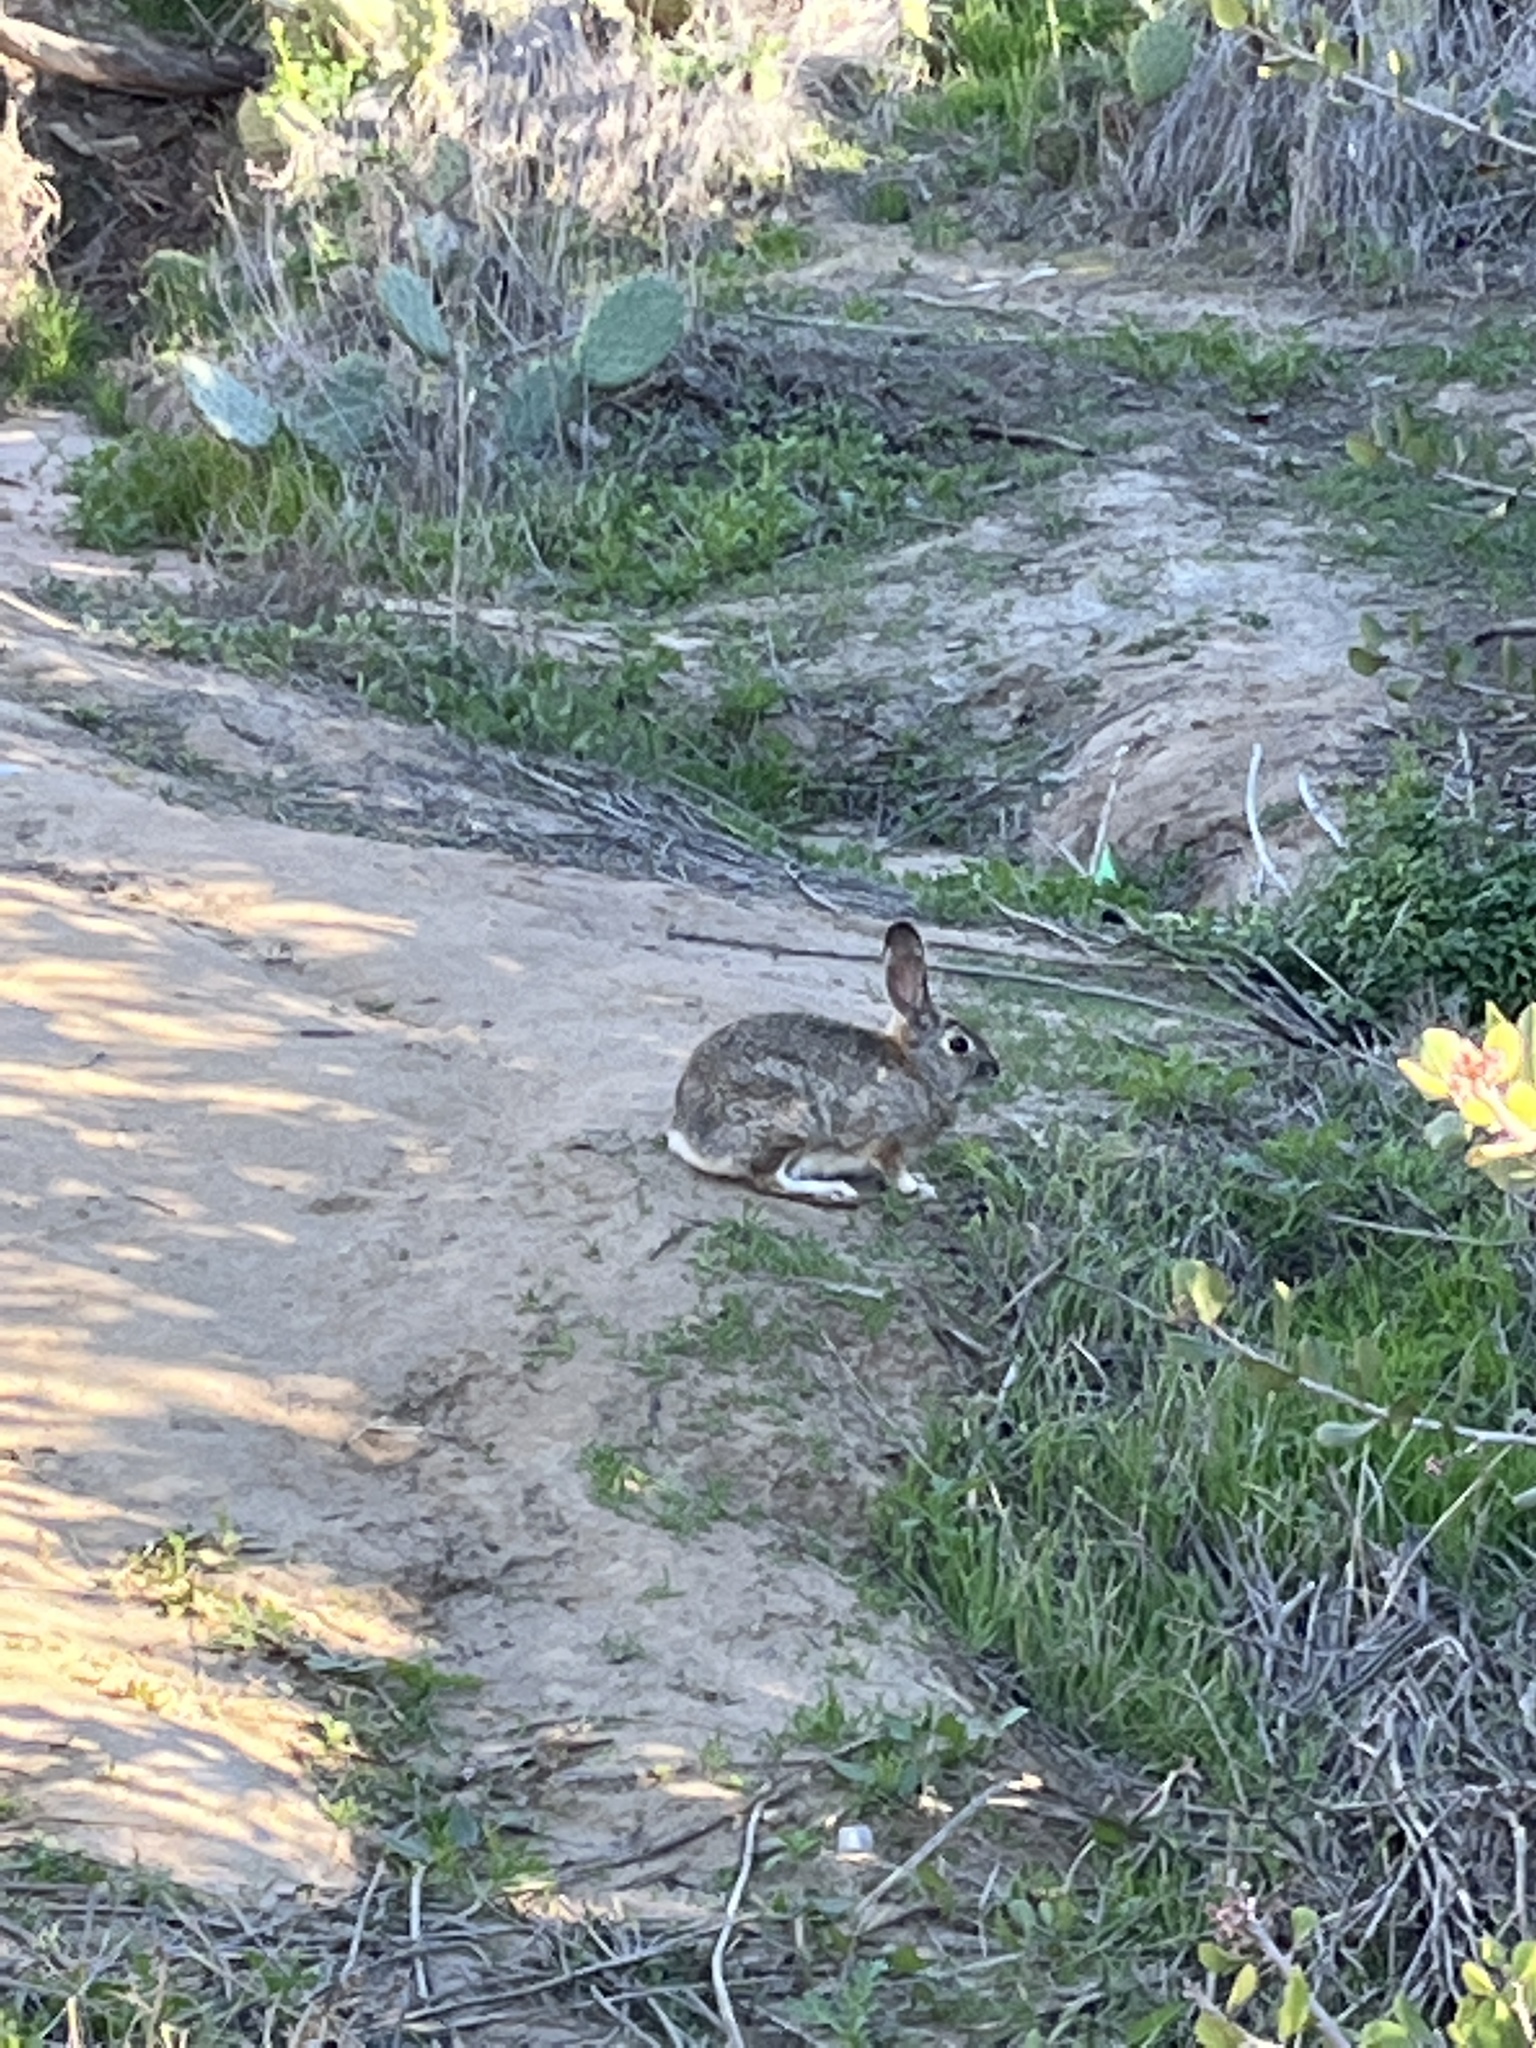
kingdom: Animalia
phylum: Chordata
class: Mammalia
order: Lagomorpha
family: Leporidae
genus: Sylvilagus
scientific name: Sylvilagus audubonii
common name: Desert cottontail
